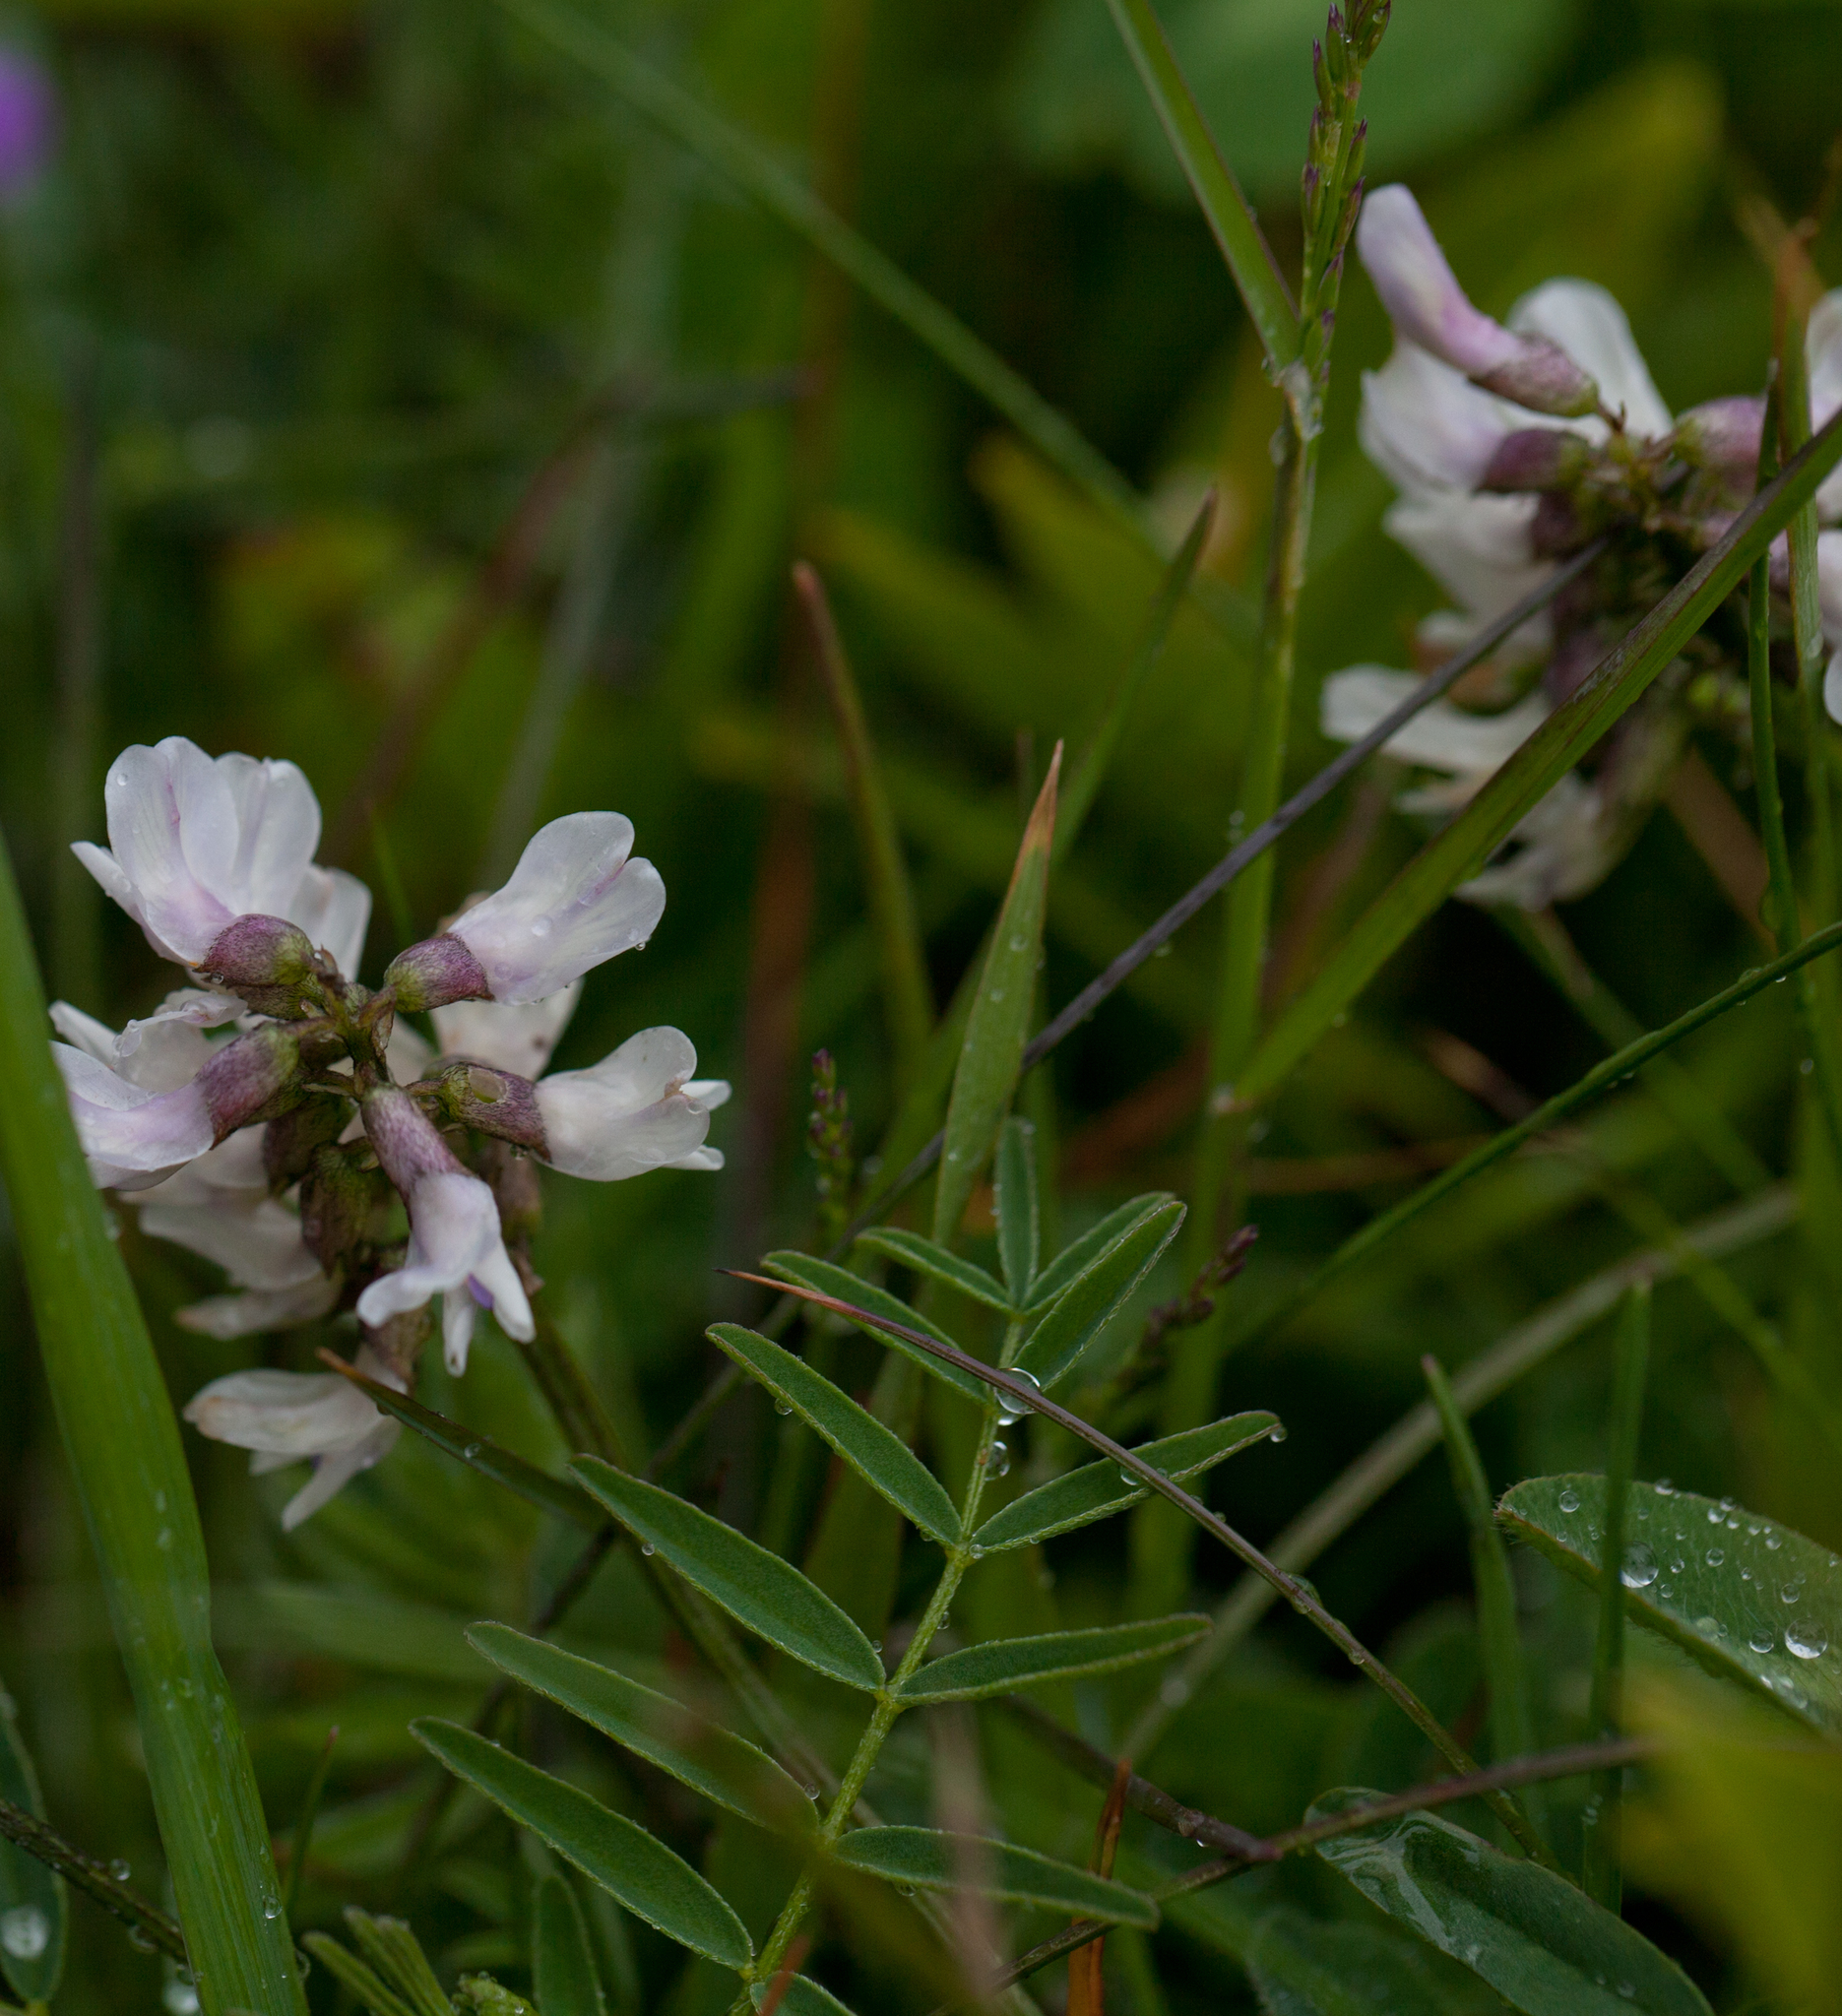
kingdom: Plantae
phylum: Tracheophyta
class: Magnoliopsida
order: Fabales
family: Fabaceae
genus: Astragalus
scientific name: Astragalus robbinsii
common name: Robbins' milk-vetch
